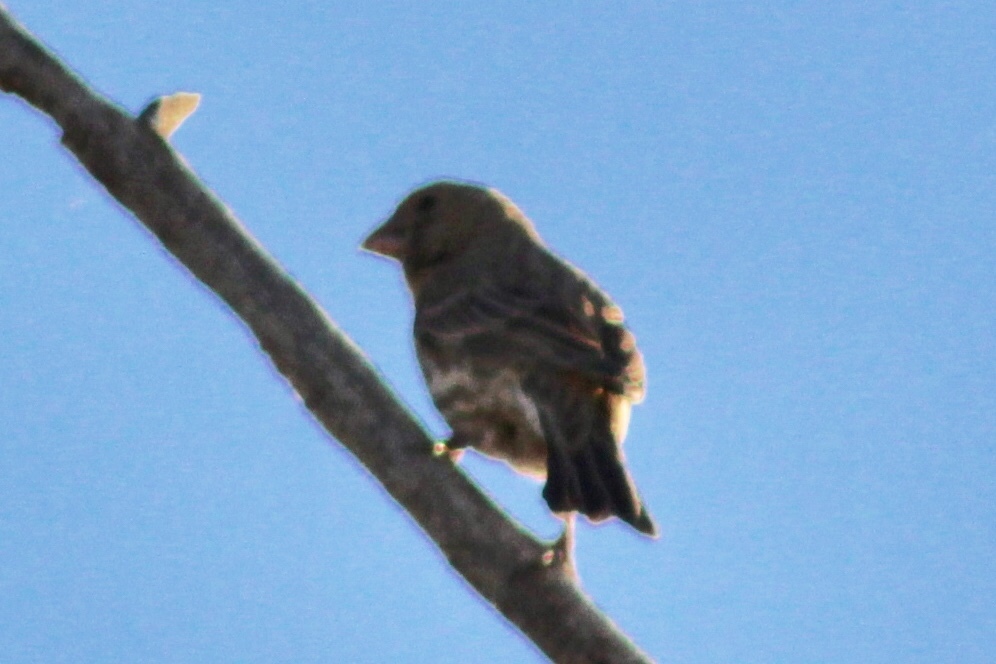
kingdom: Animalia
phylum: Chordata
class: Aves
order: Passeriformes
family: Fringillidae
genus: Haemorhous
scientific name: Haemorhous mexicanus
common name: House finch
